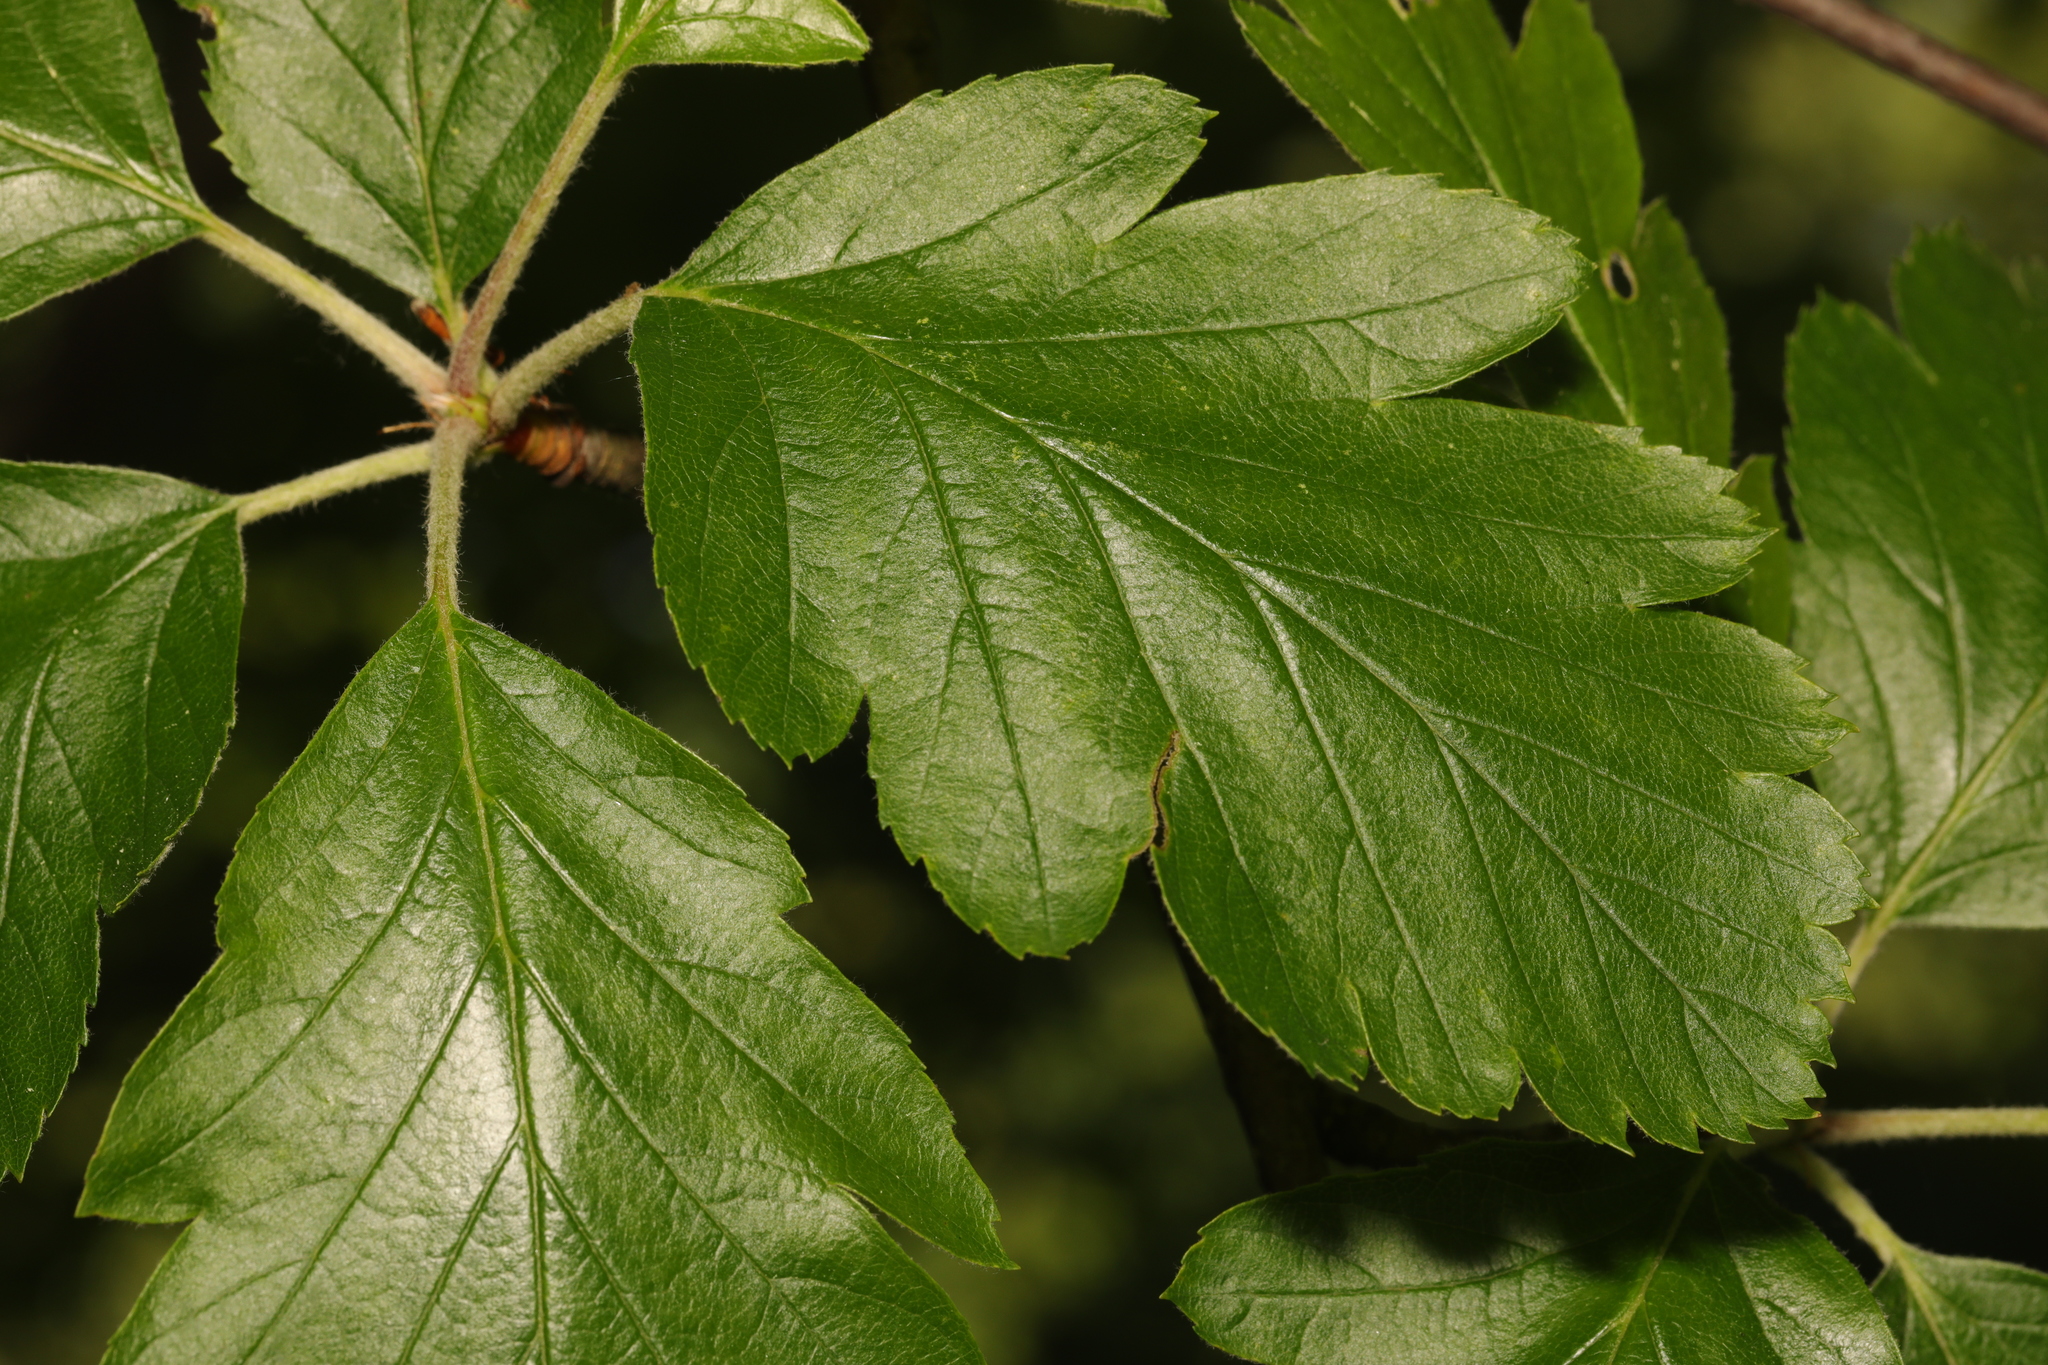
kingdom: Plantae
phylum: Tracheophyta
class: Magnoliopsida
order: Rosales
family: Rosaceae
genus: Scandosorbus
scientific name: Scandosorbus intermedia
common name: Swedish whitebeam
